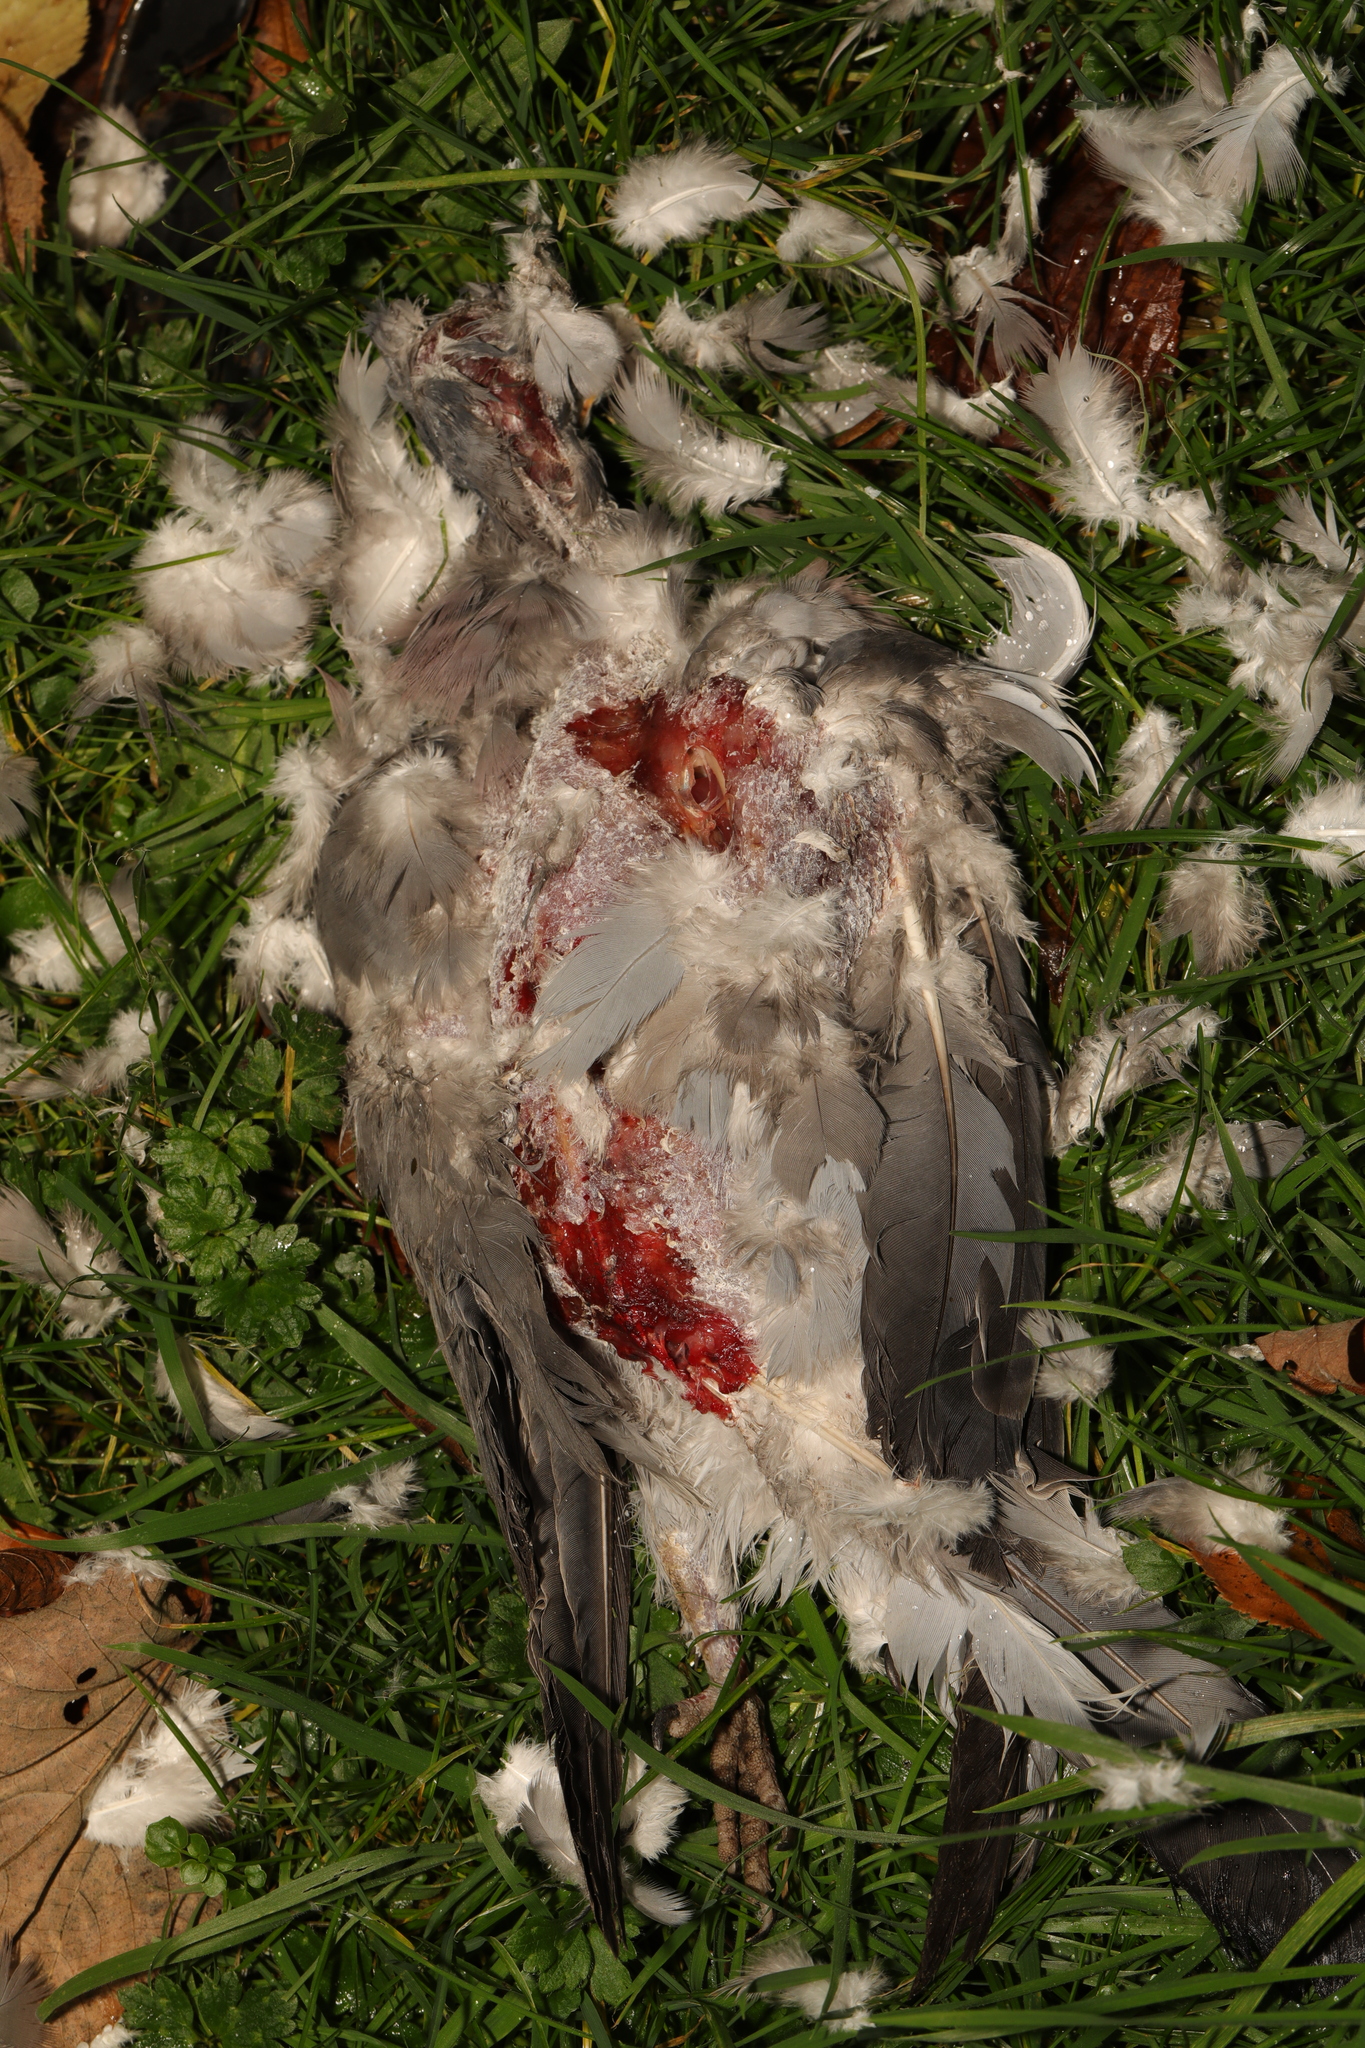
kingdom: Animalia
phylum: Chordata
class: Aves
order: Columbiformes
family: Columbidae
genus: Columba
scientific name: Columba palumbus
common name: Common wood pigeon
